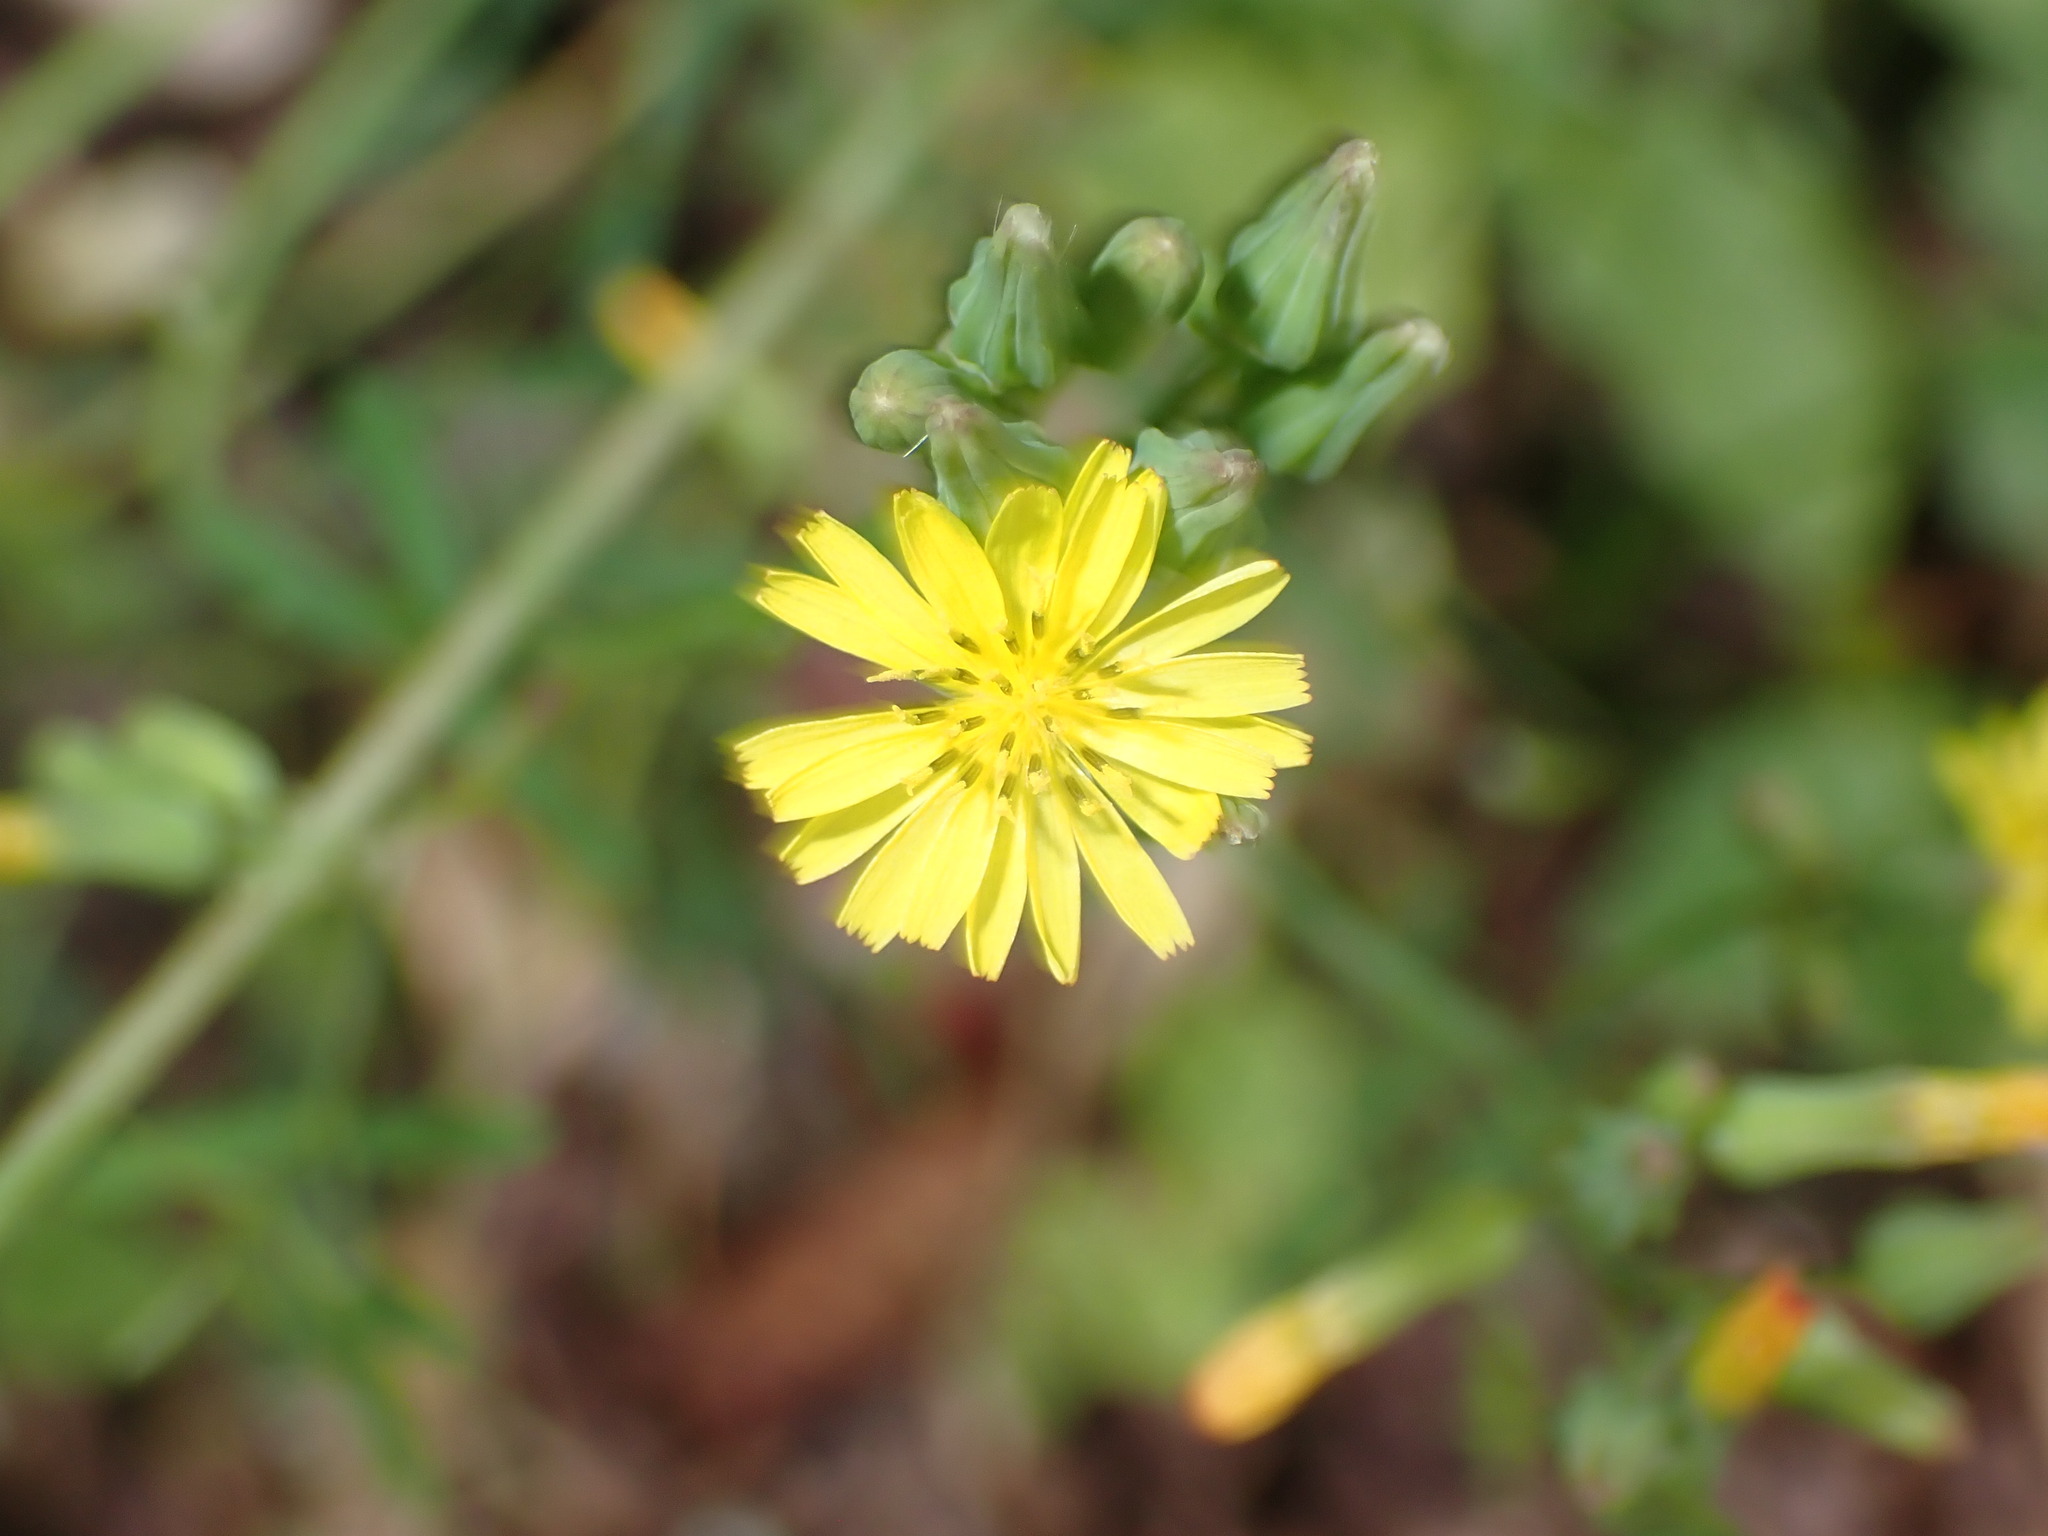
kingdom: Plantae
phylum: Tracheophyta
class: Magnoliopsida
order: Asterales
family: Asteraceae
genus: Youngia
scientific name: Youngia japonica
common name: Oriental false hawksbeard
